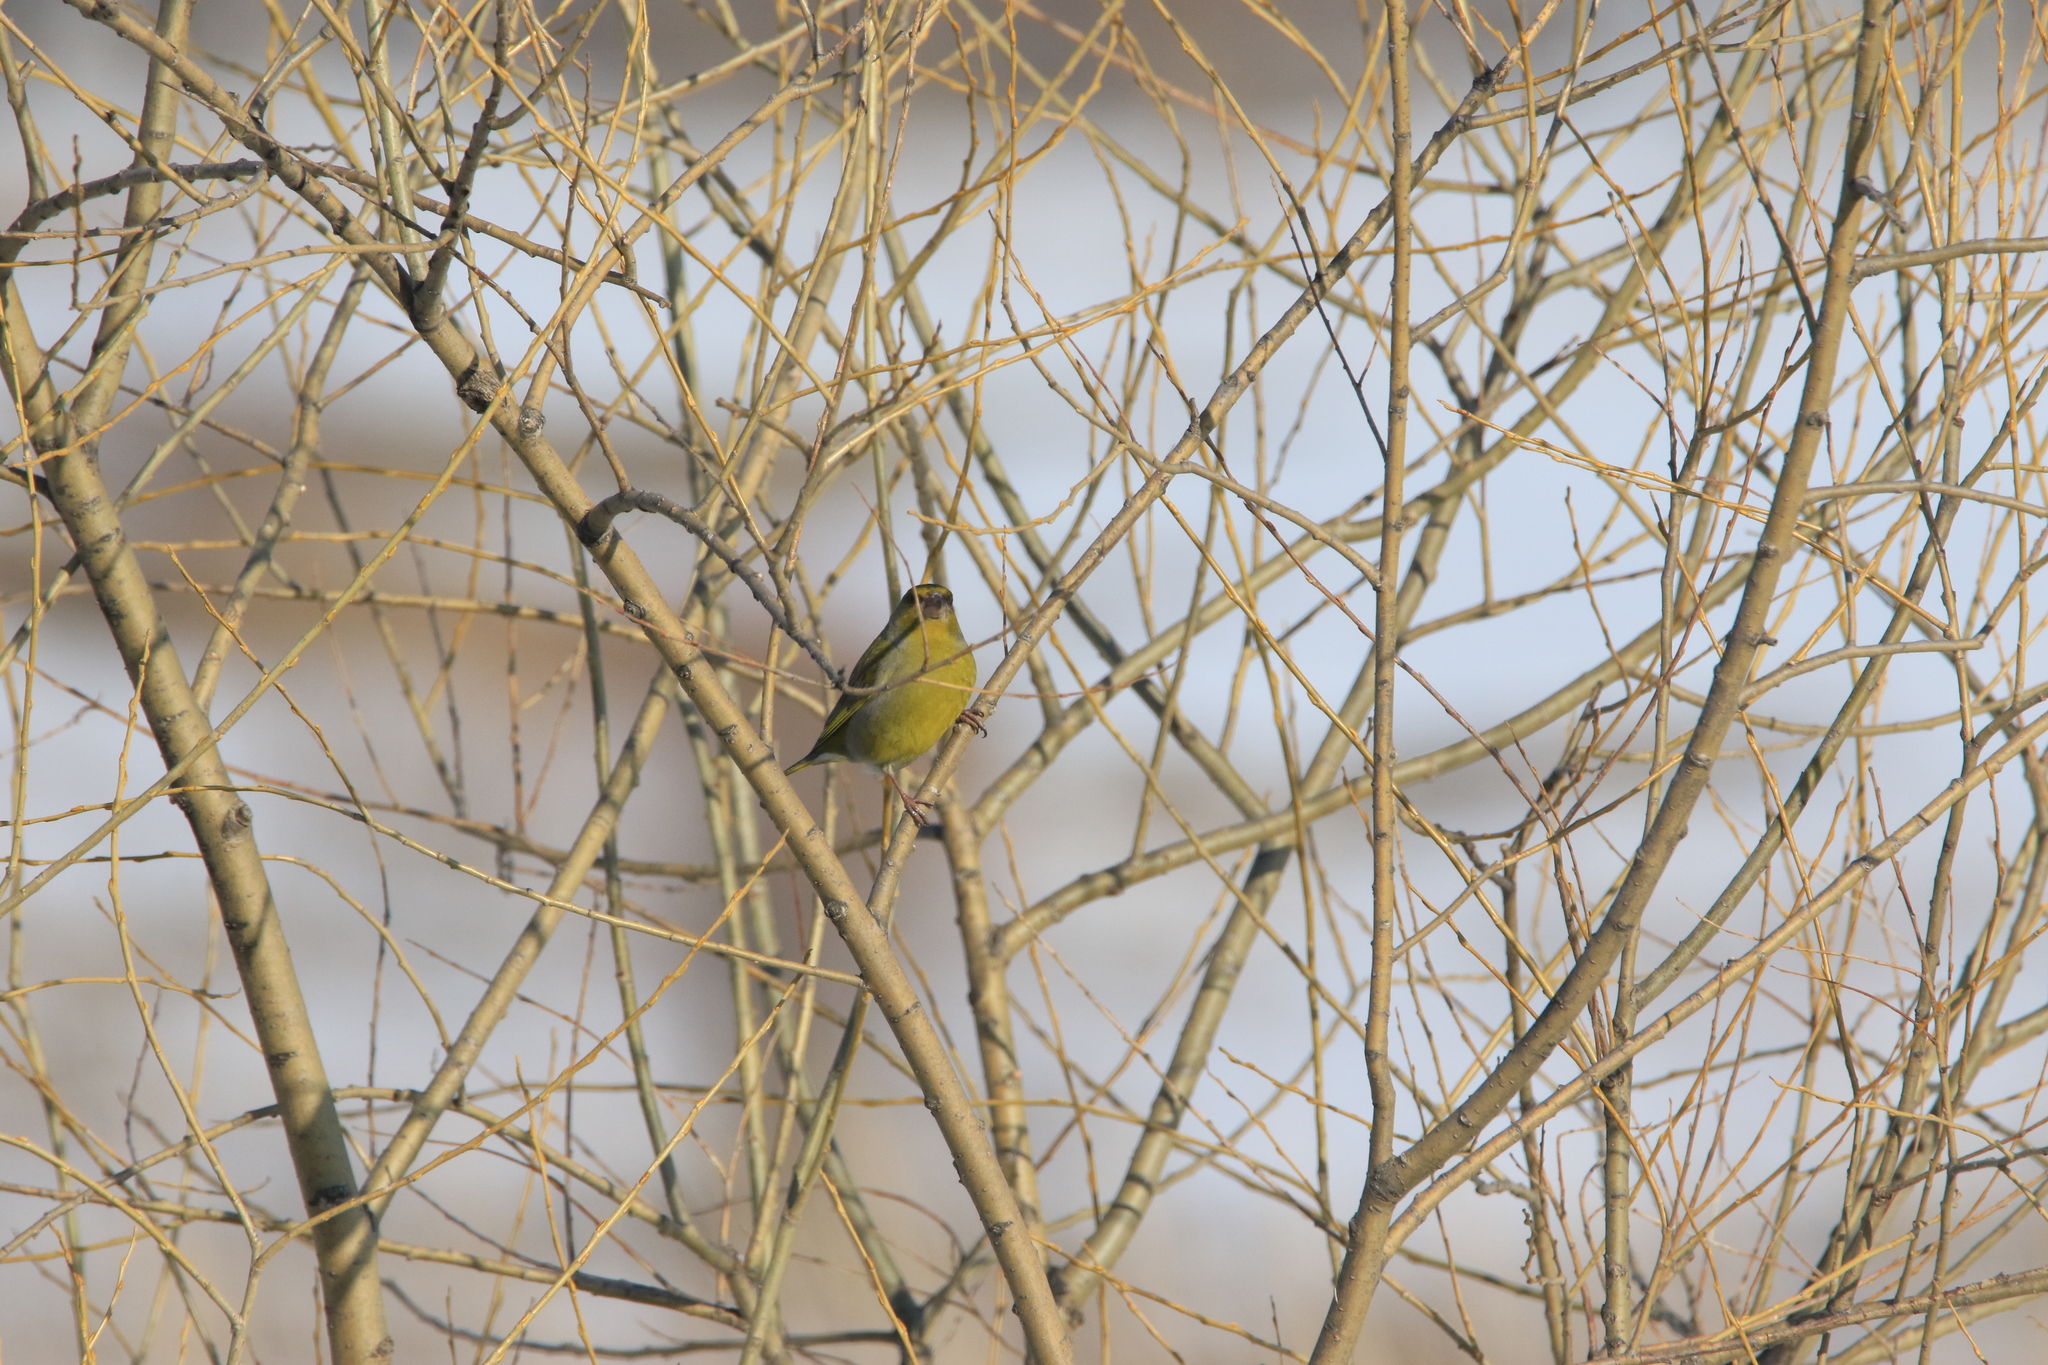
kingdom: Plantae
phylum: Tracheophyta
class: Liliopsida
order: Poales
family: Poaceae
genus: Chloris
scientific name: Chloris chloris
